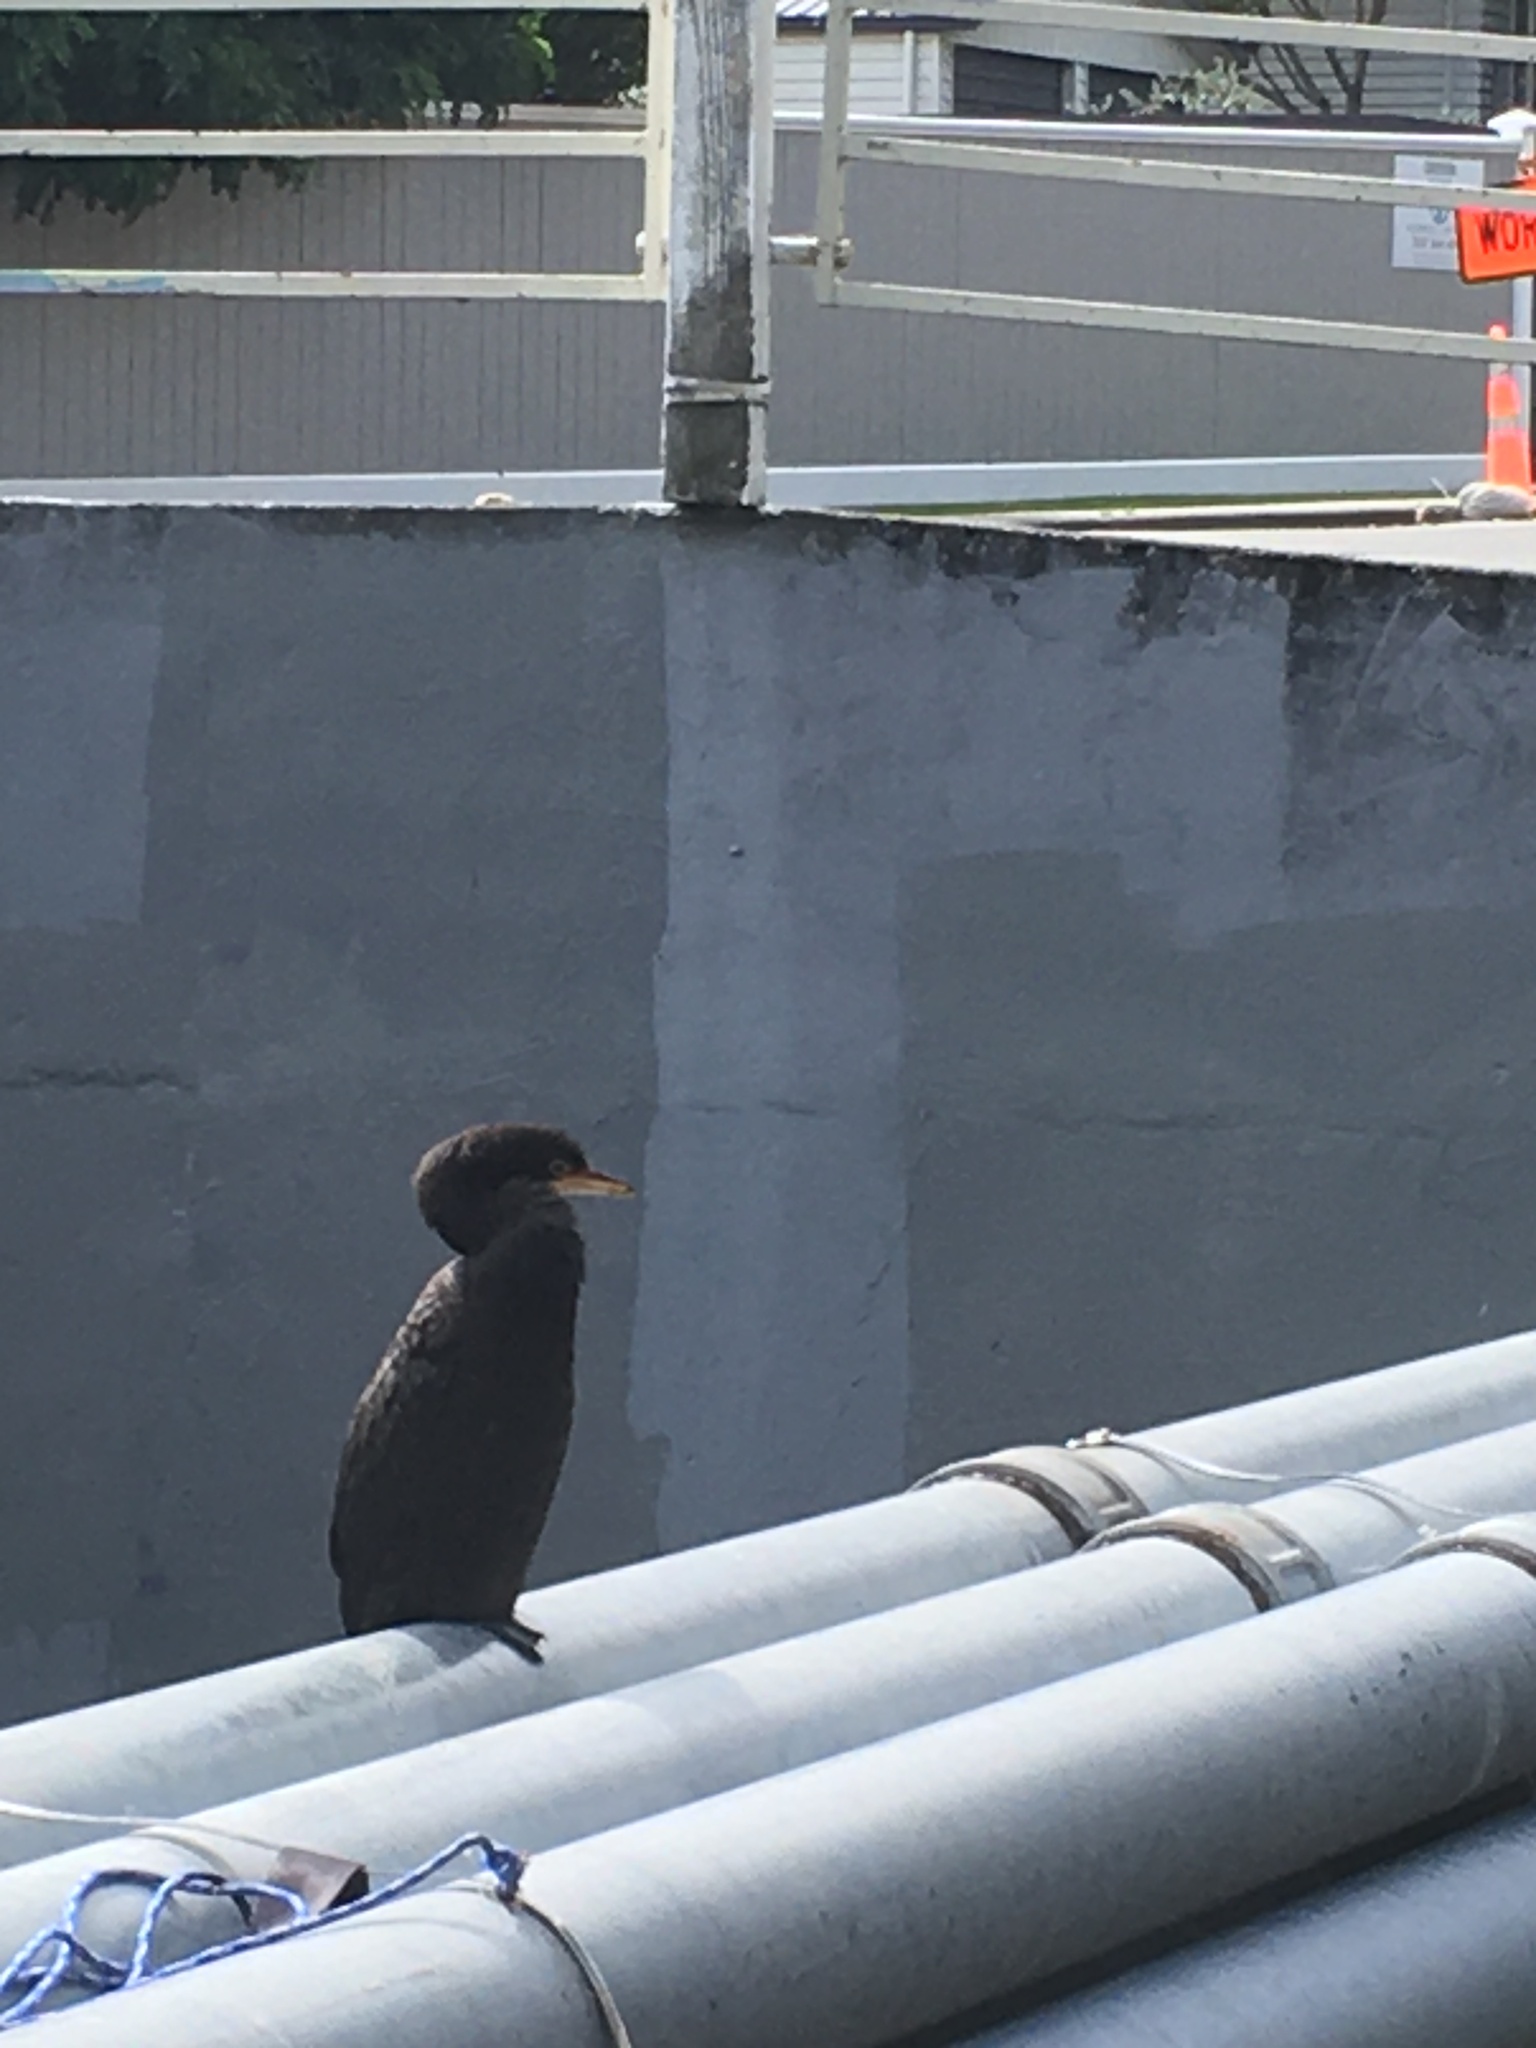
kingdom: Animalia
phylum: Chordata
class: Aves
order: Suliformes
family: Phalacrocoracidae
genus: Microcarbo
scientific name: Microcarbo melanoleucos
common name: Little pied cormorant
